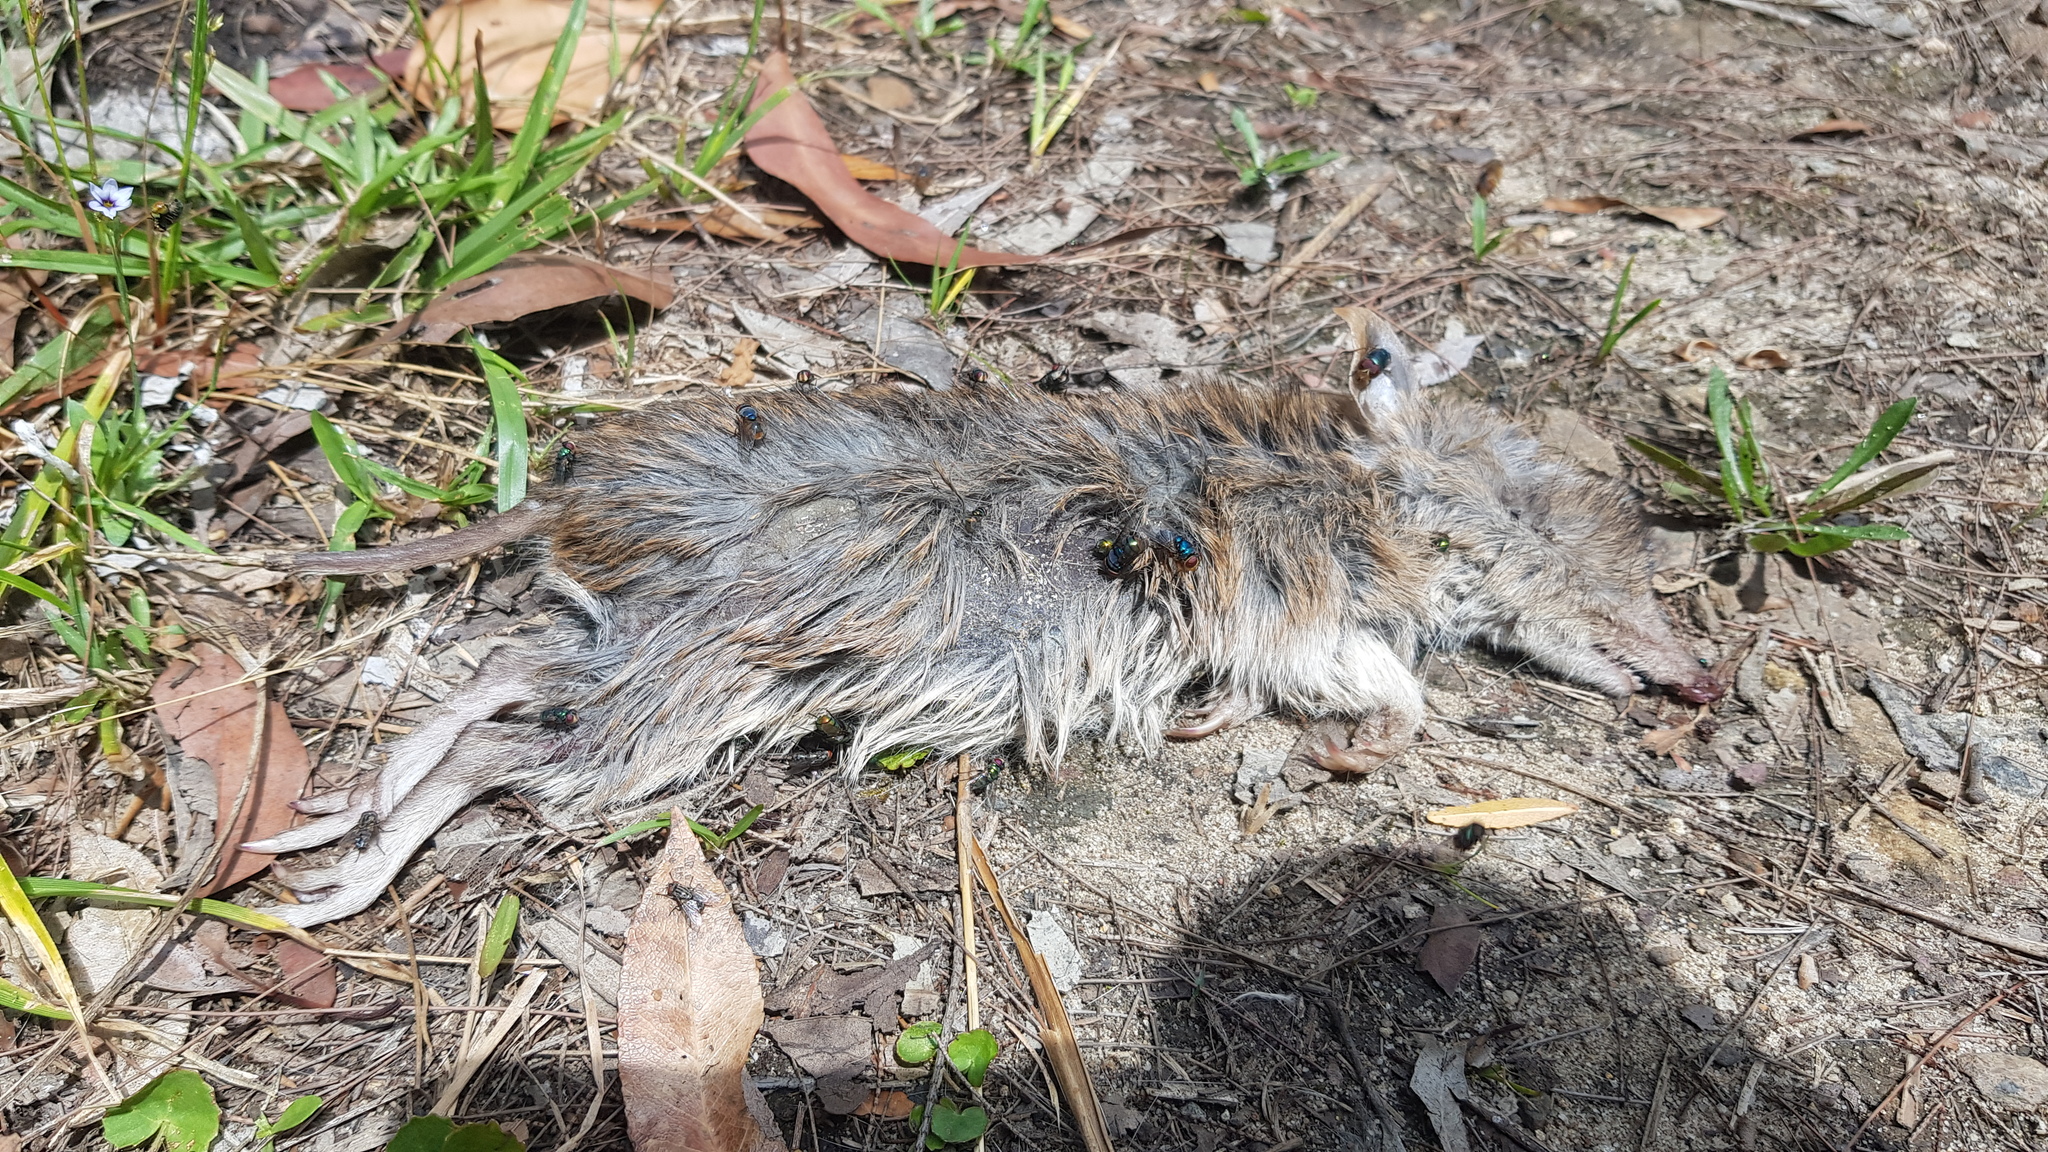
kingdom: Animalia
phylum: Chordata
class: Mammalia
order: Peramelemorphia
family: Peramelidae
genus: Perameles
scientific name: Perameles nasuta
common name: Long-nosed bandicoot
